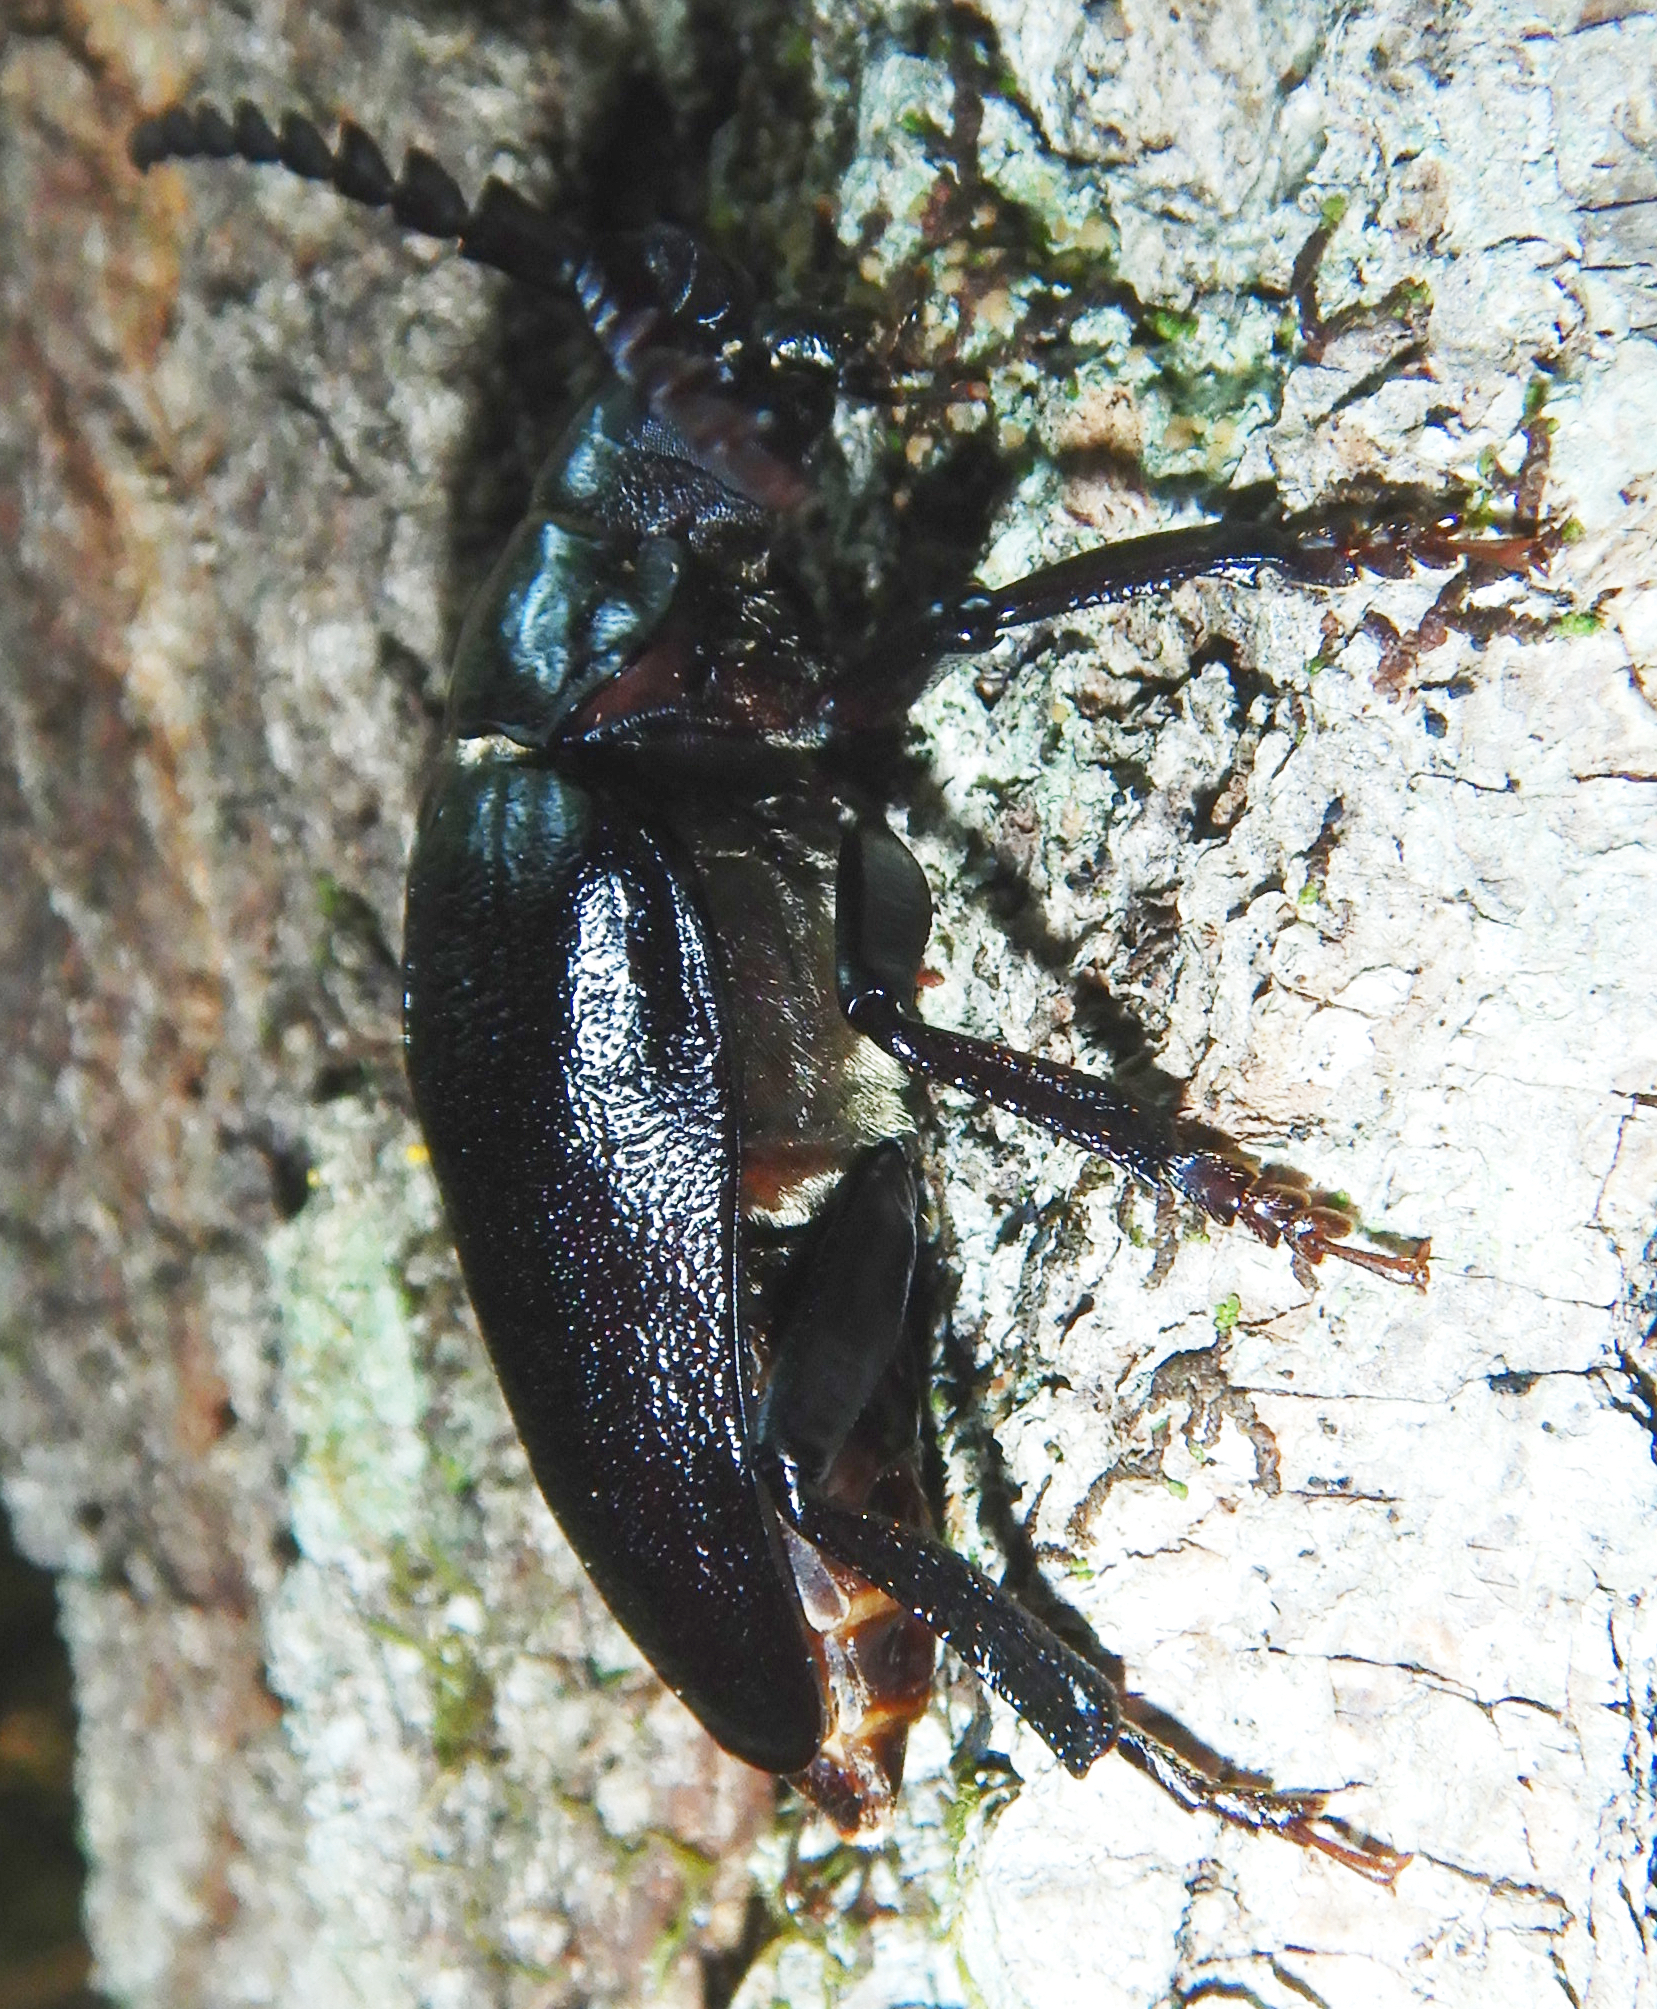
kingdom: Animalia
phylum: Arthropoda
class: Insecta
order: Coleoptera
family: Cerambycidae
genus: Prionus
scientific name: Prionus laticollis
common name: Broad necked prionus
